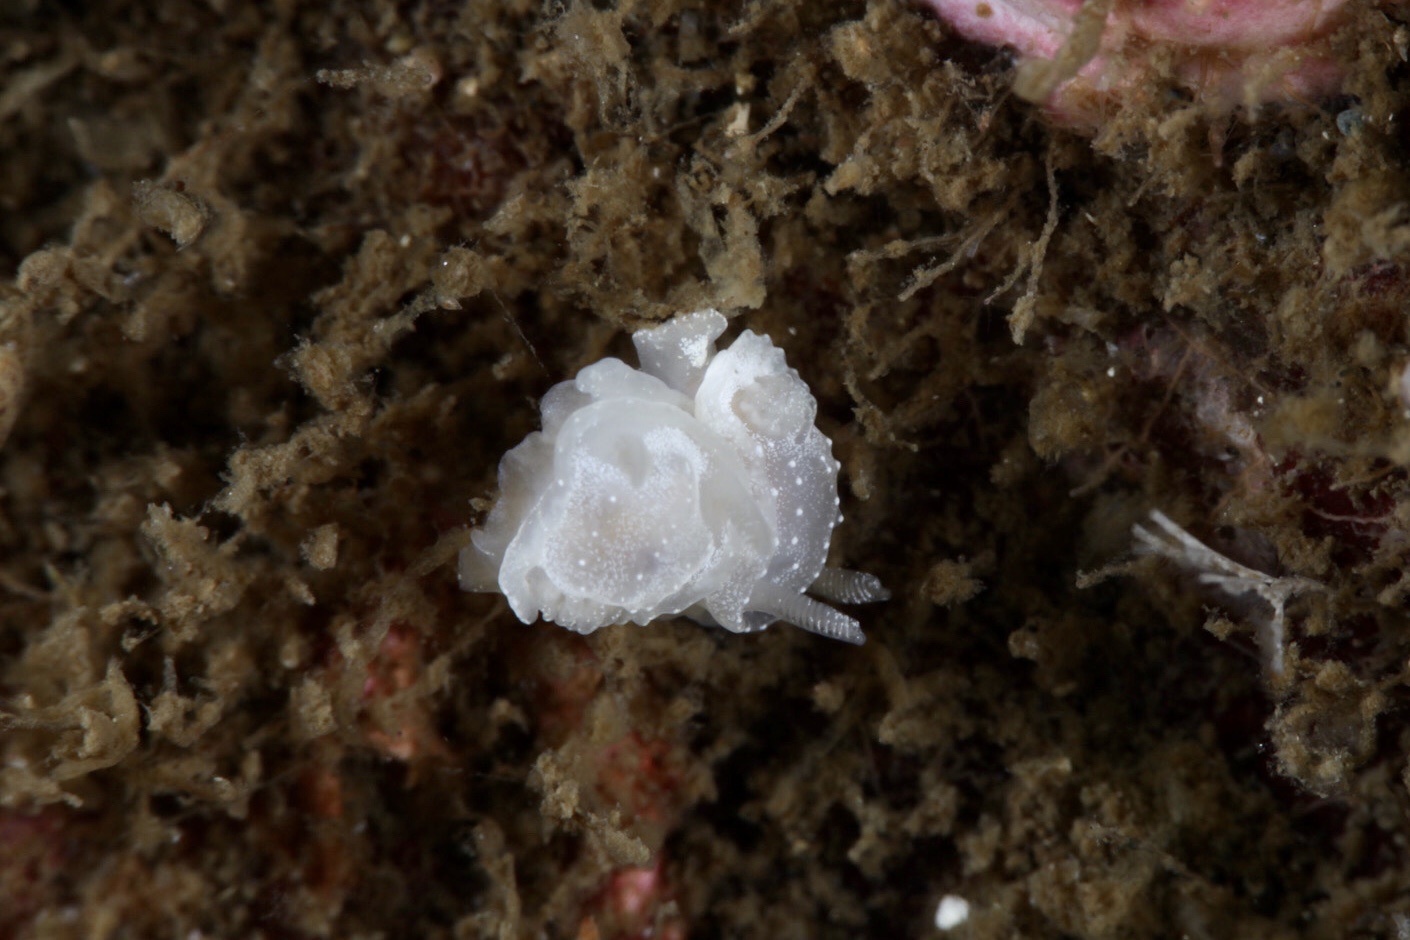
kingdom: Animalia
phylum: Mollusca
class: Gastropoda
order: Nudibranchia
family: Goniodorididae
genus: Okenia
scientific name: Okenia
